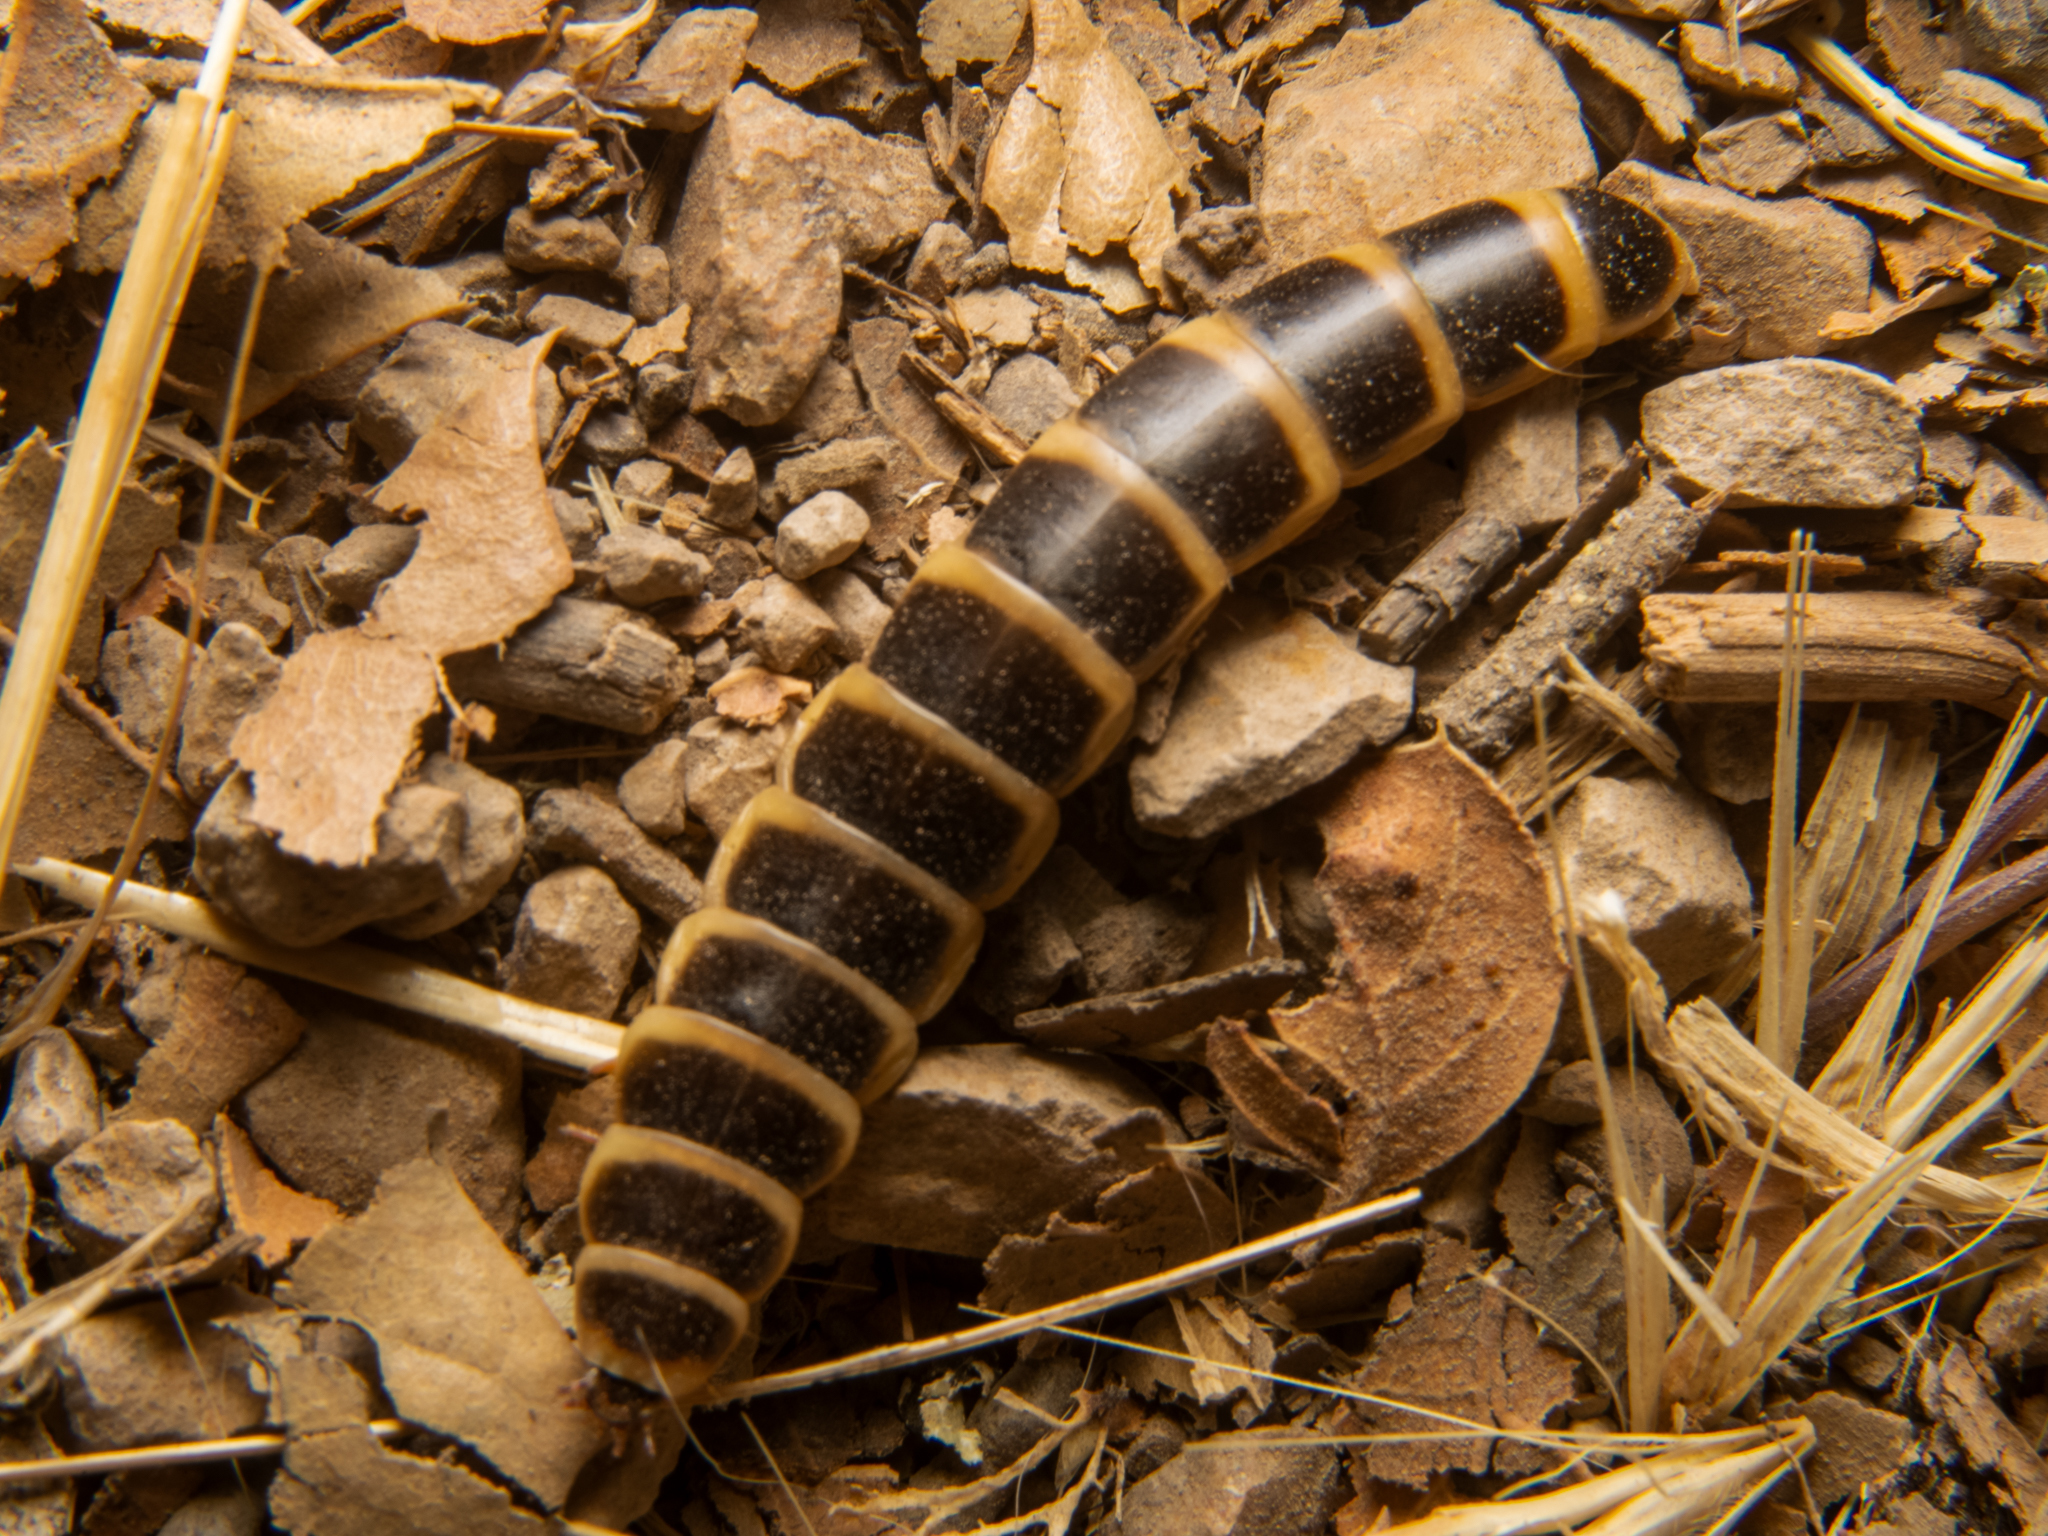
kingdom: Animalia
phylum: Arthropoda
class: Insecta
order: Coleoptera
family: Phengodidae
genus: Zarhipis
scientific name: Zarhipis integripennis
